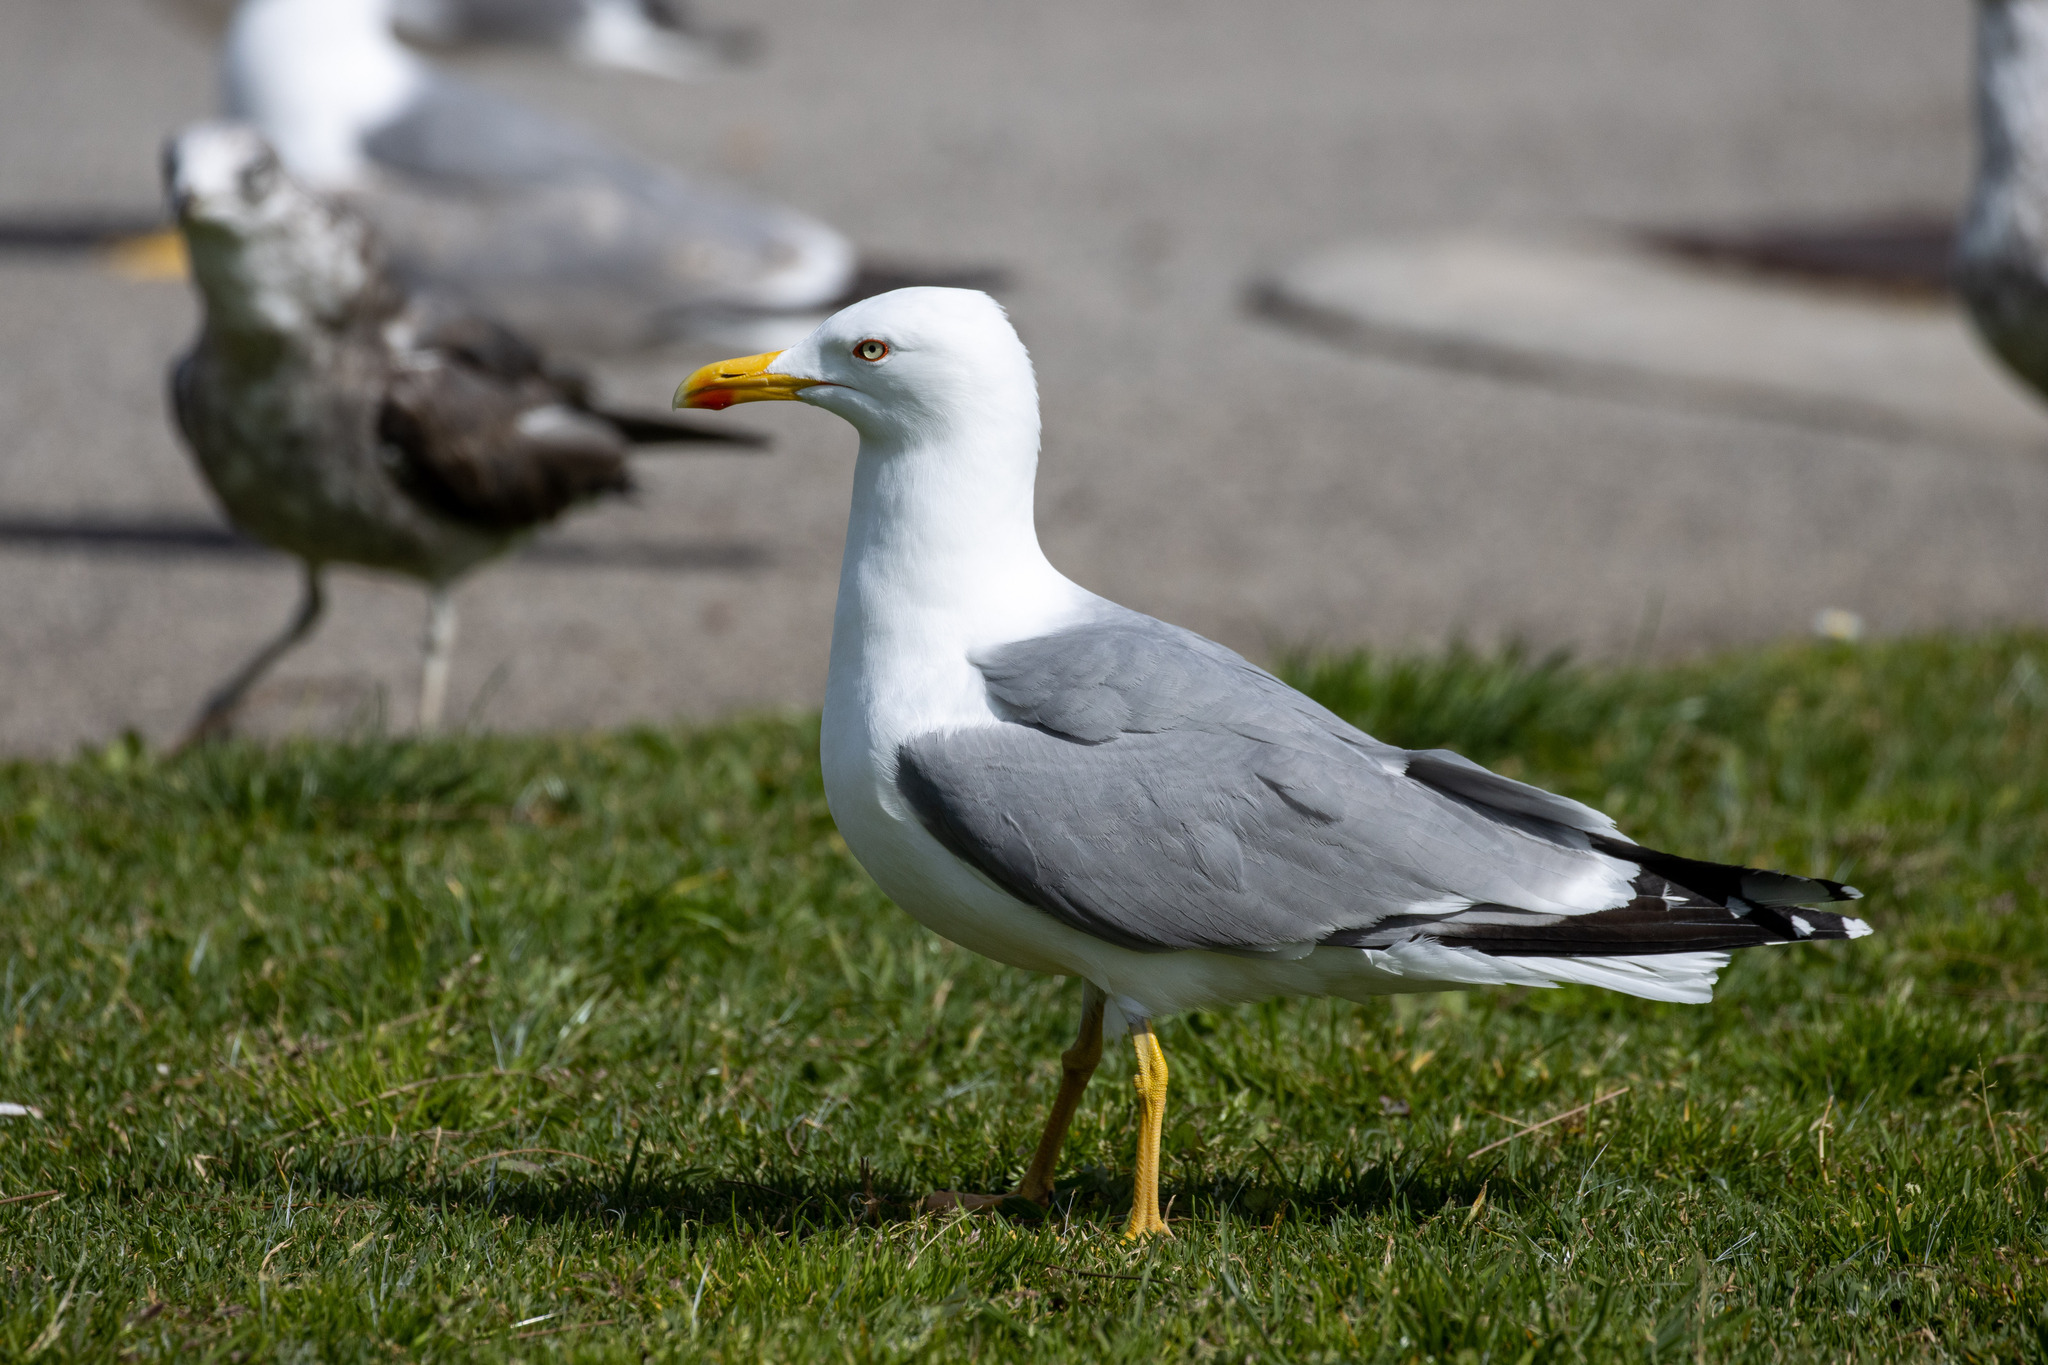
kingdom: Animalia
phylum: Chordata
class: Aves
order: Charadriiformes
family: Laridae
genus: Larus
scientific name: Larus michahellis
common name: Yellow-legged gull
